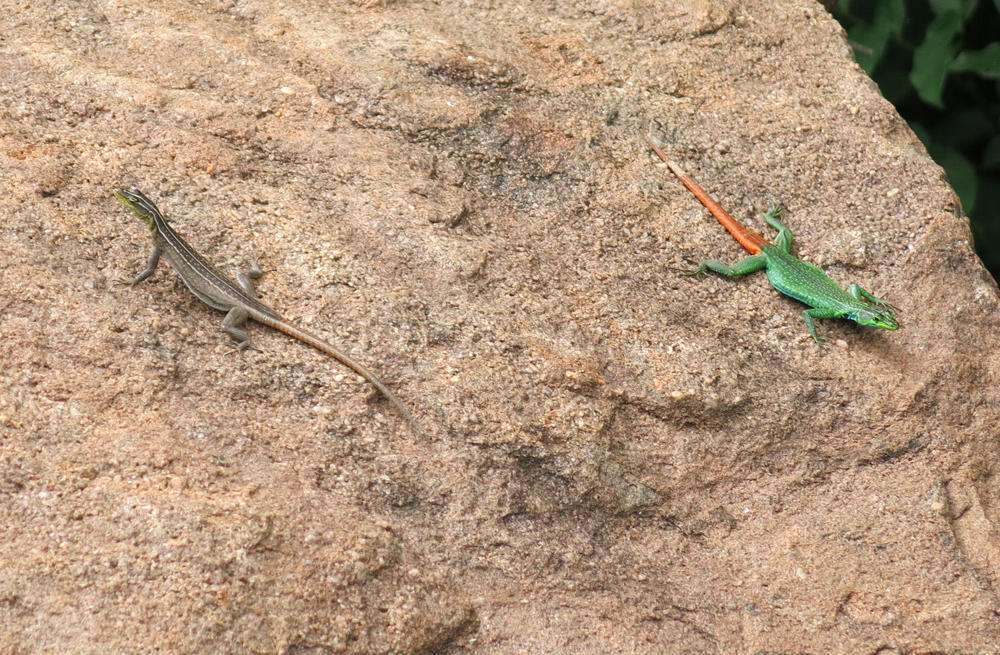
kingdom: Animalia
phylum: Chordata
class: Squamata
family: Cordylidae
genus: Platysaurus
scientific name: Platysaurus relictus
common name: Soutpansberg flat lizard
